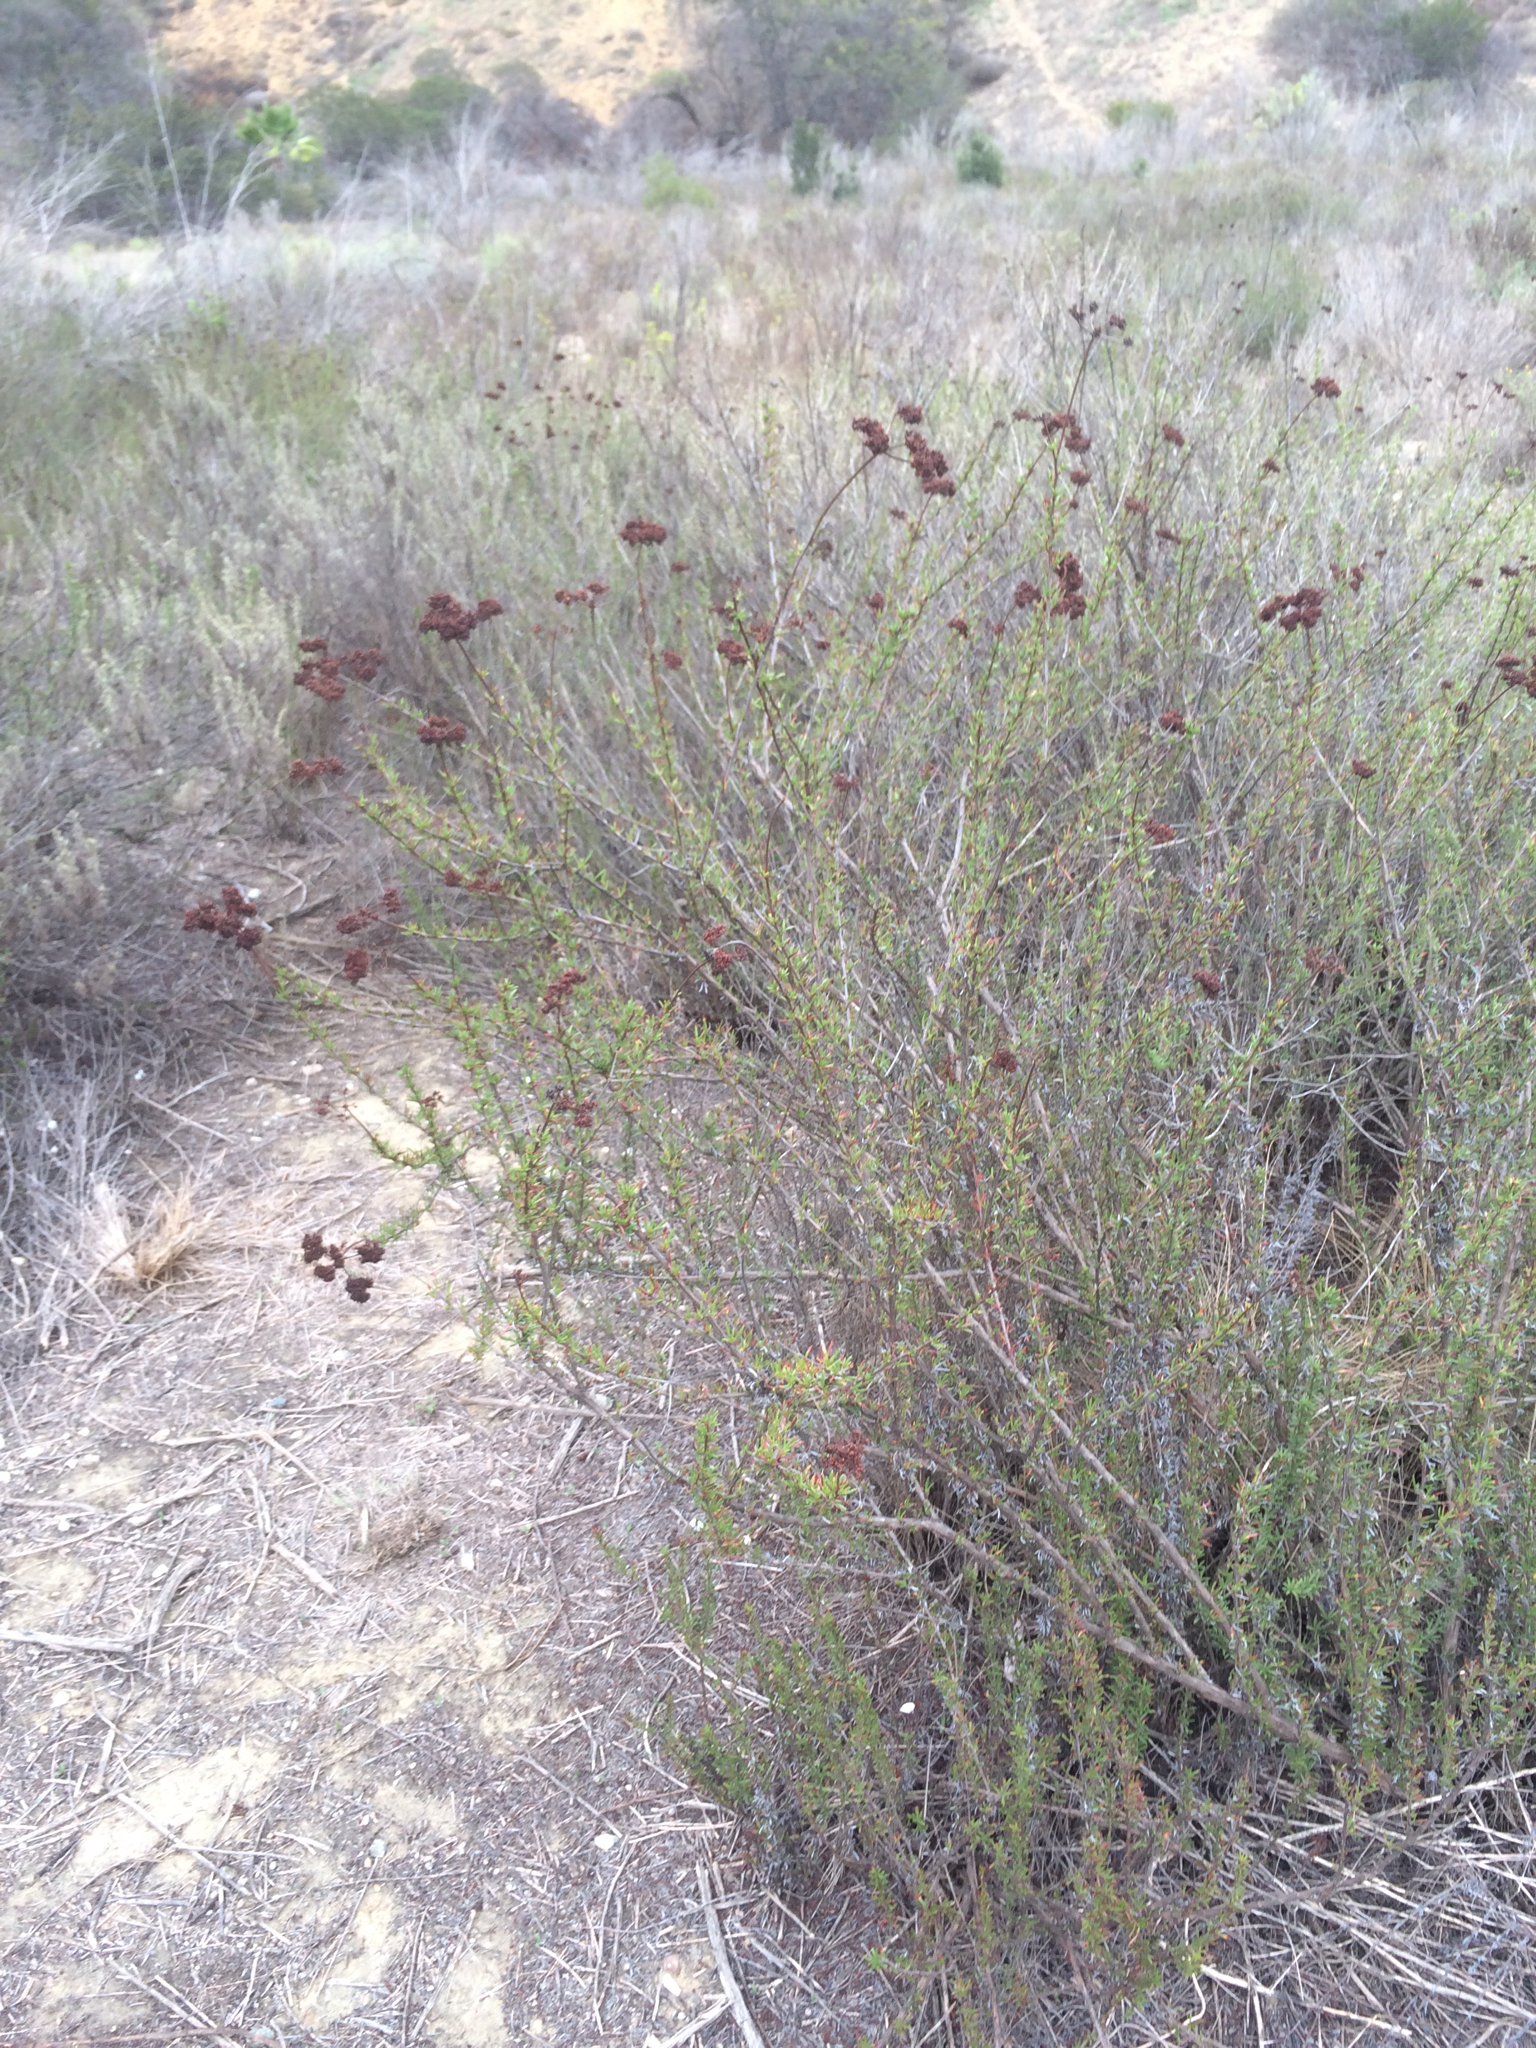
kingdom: Plantae
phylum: Tracheophyta
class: Magnoliopsida
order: Caryophyllales
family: Polygonaceae
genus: Eriogonum
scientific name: Eriogonum fasciculatum
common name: California wild buckwheat
